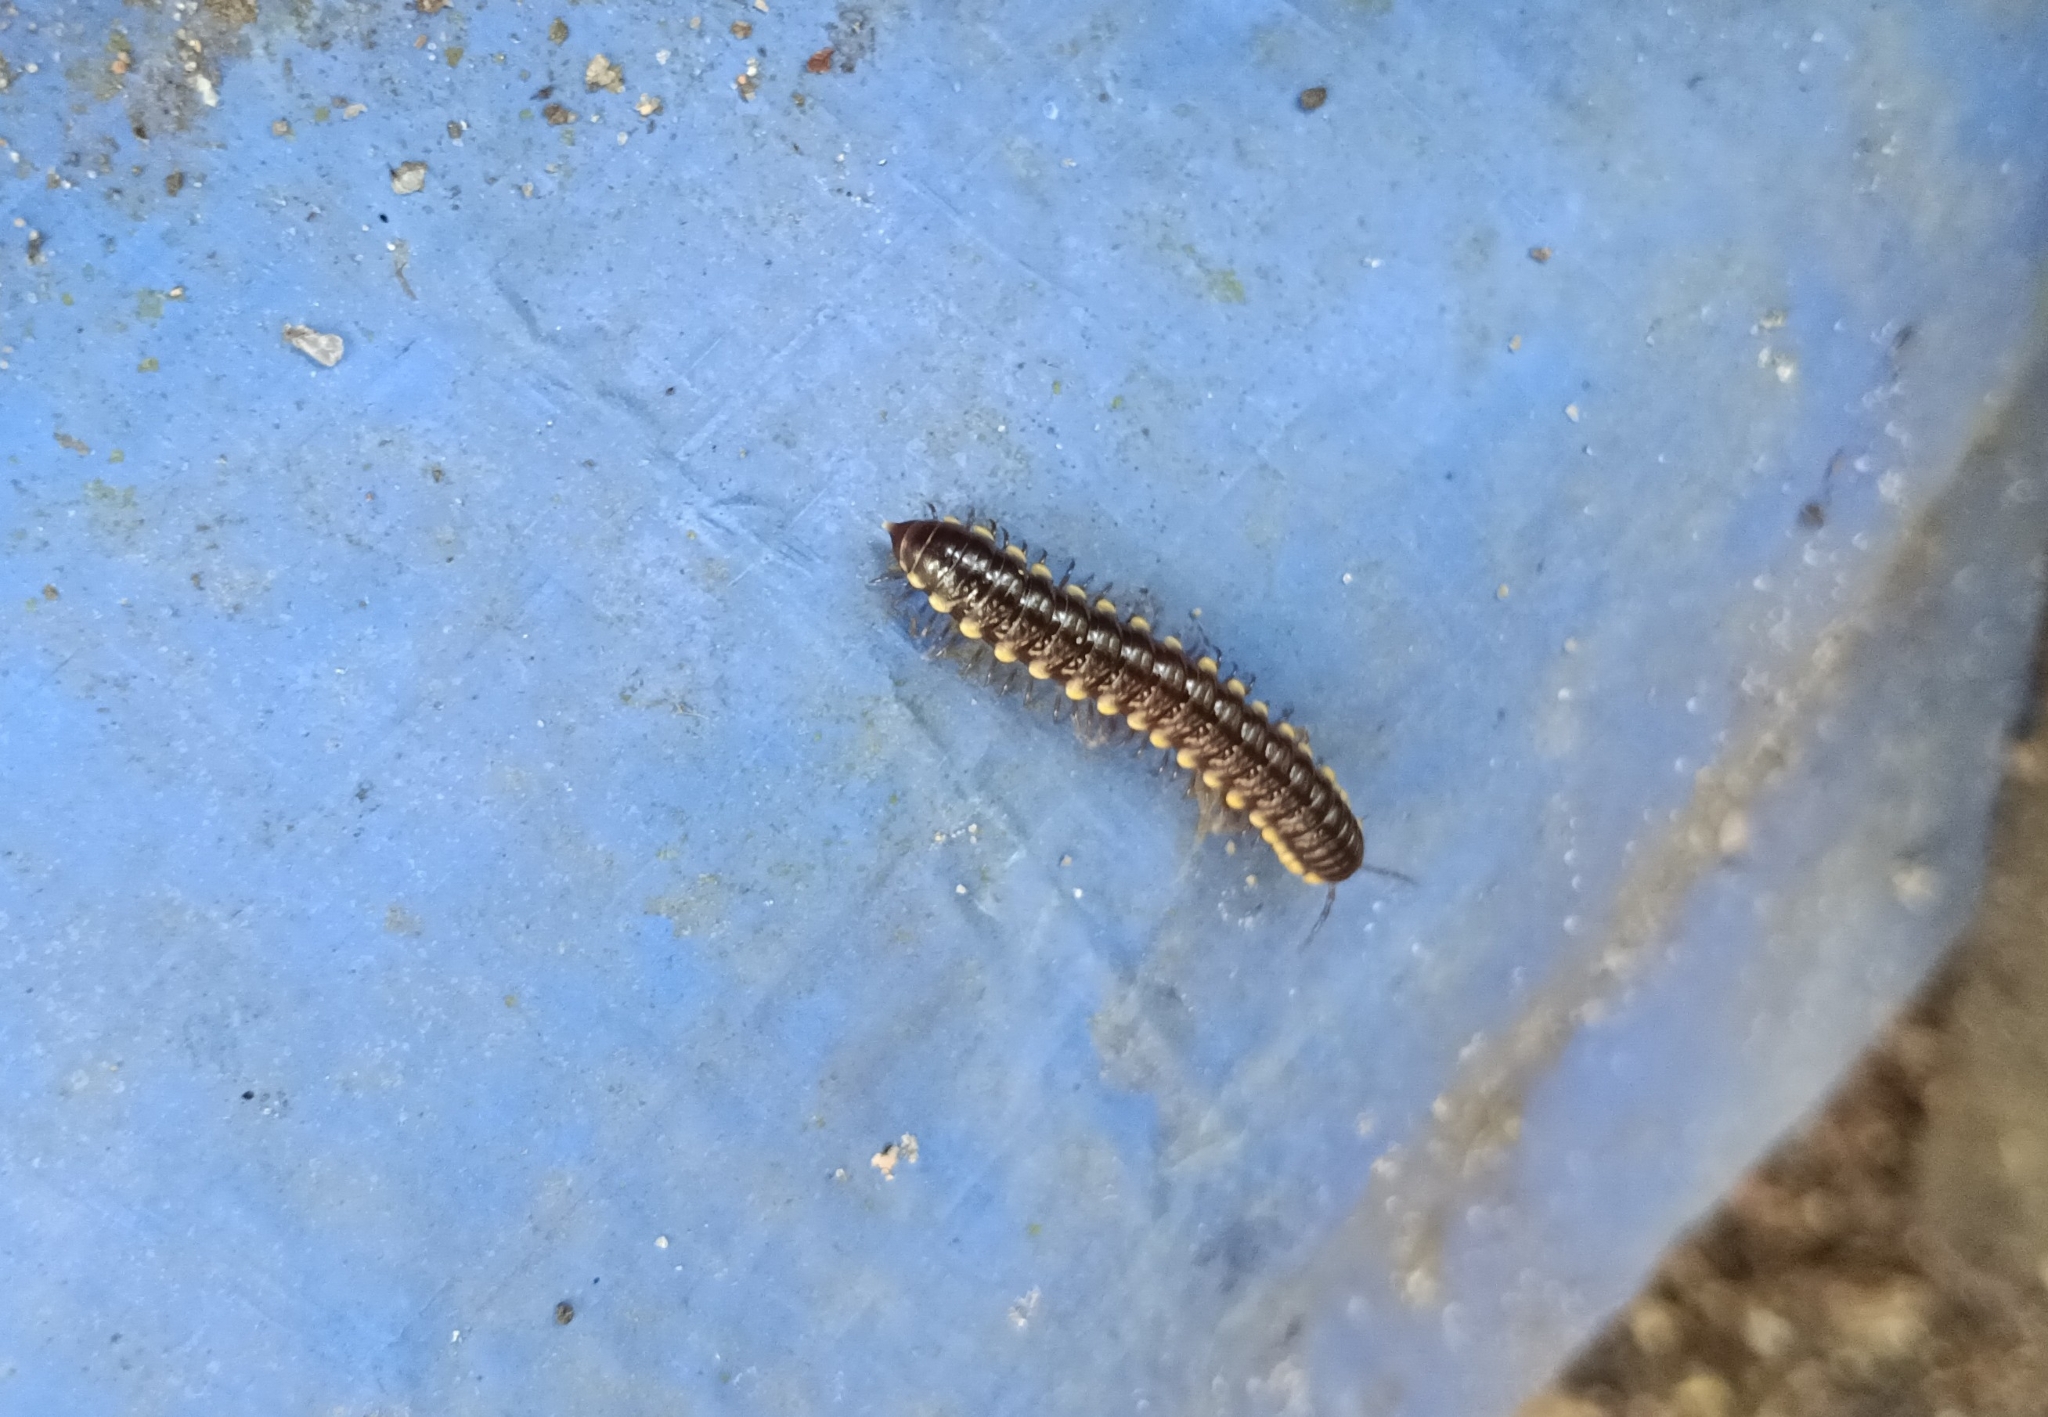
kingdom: Animalia
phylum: Arthropoda
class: Diplopoda
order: Polydesmida
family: Paradoxosomatidae
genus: Anoplodesmus
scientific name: Anoplodesmus saussurii
